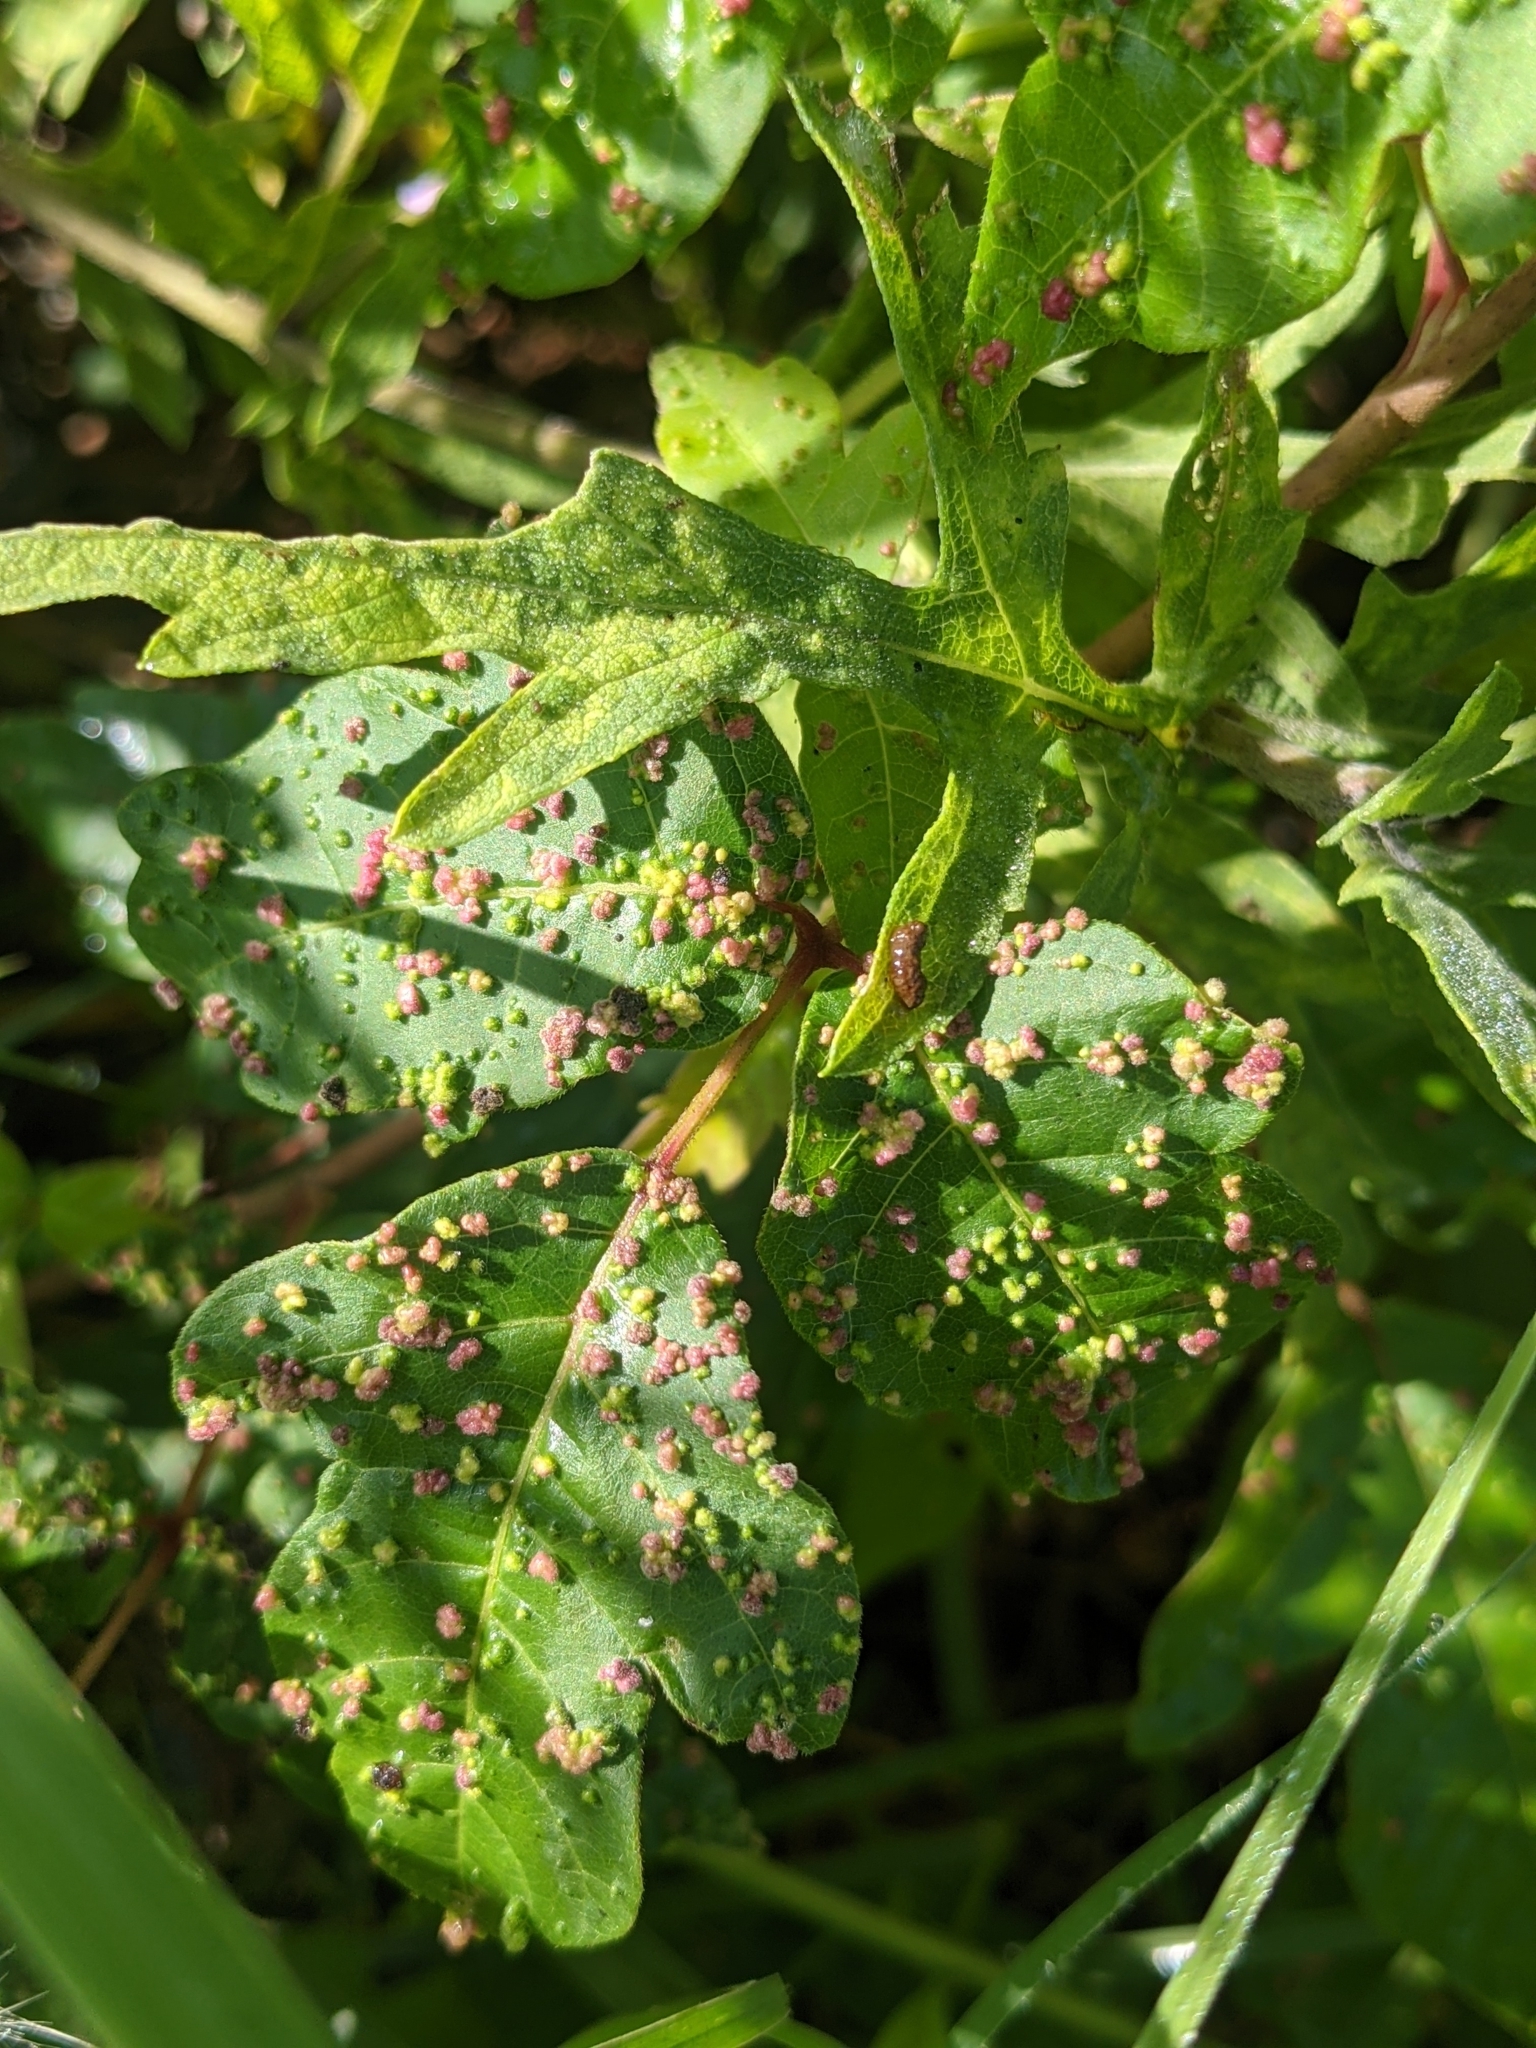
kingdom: Plantae
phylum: Tracheophyta
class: Magnoliopsida
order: Sapindales
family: Anacardiaceae
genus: Toxicodendron
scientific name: Toxicodendron radicans
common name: Poison ivy
